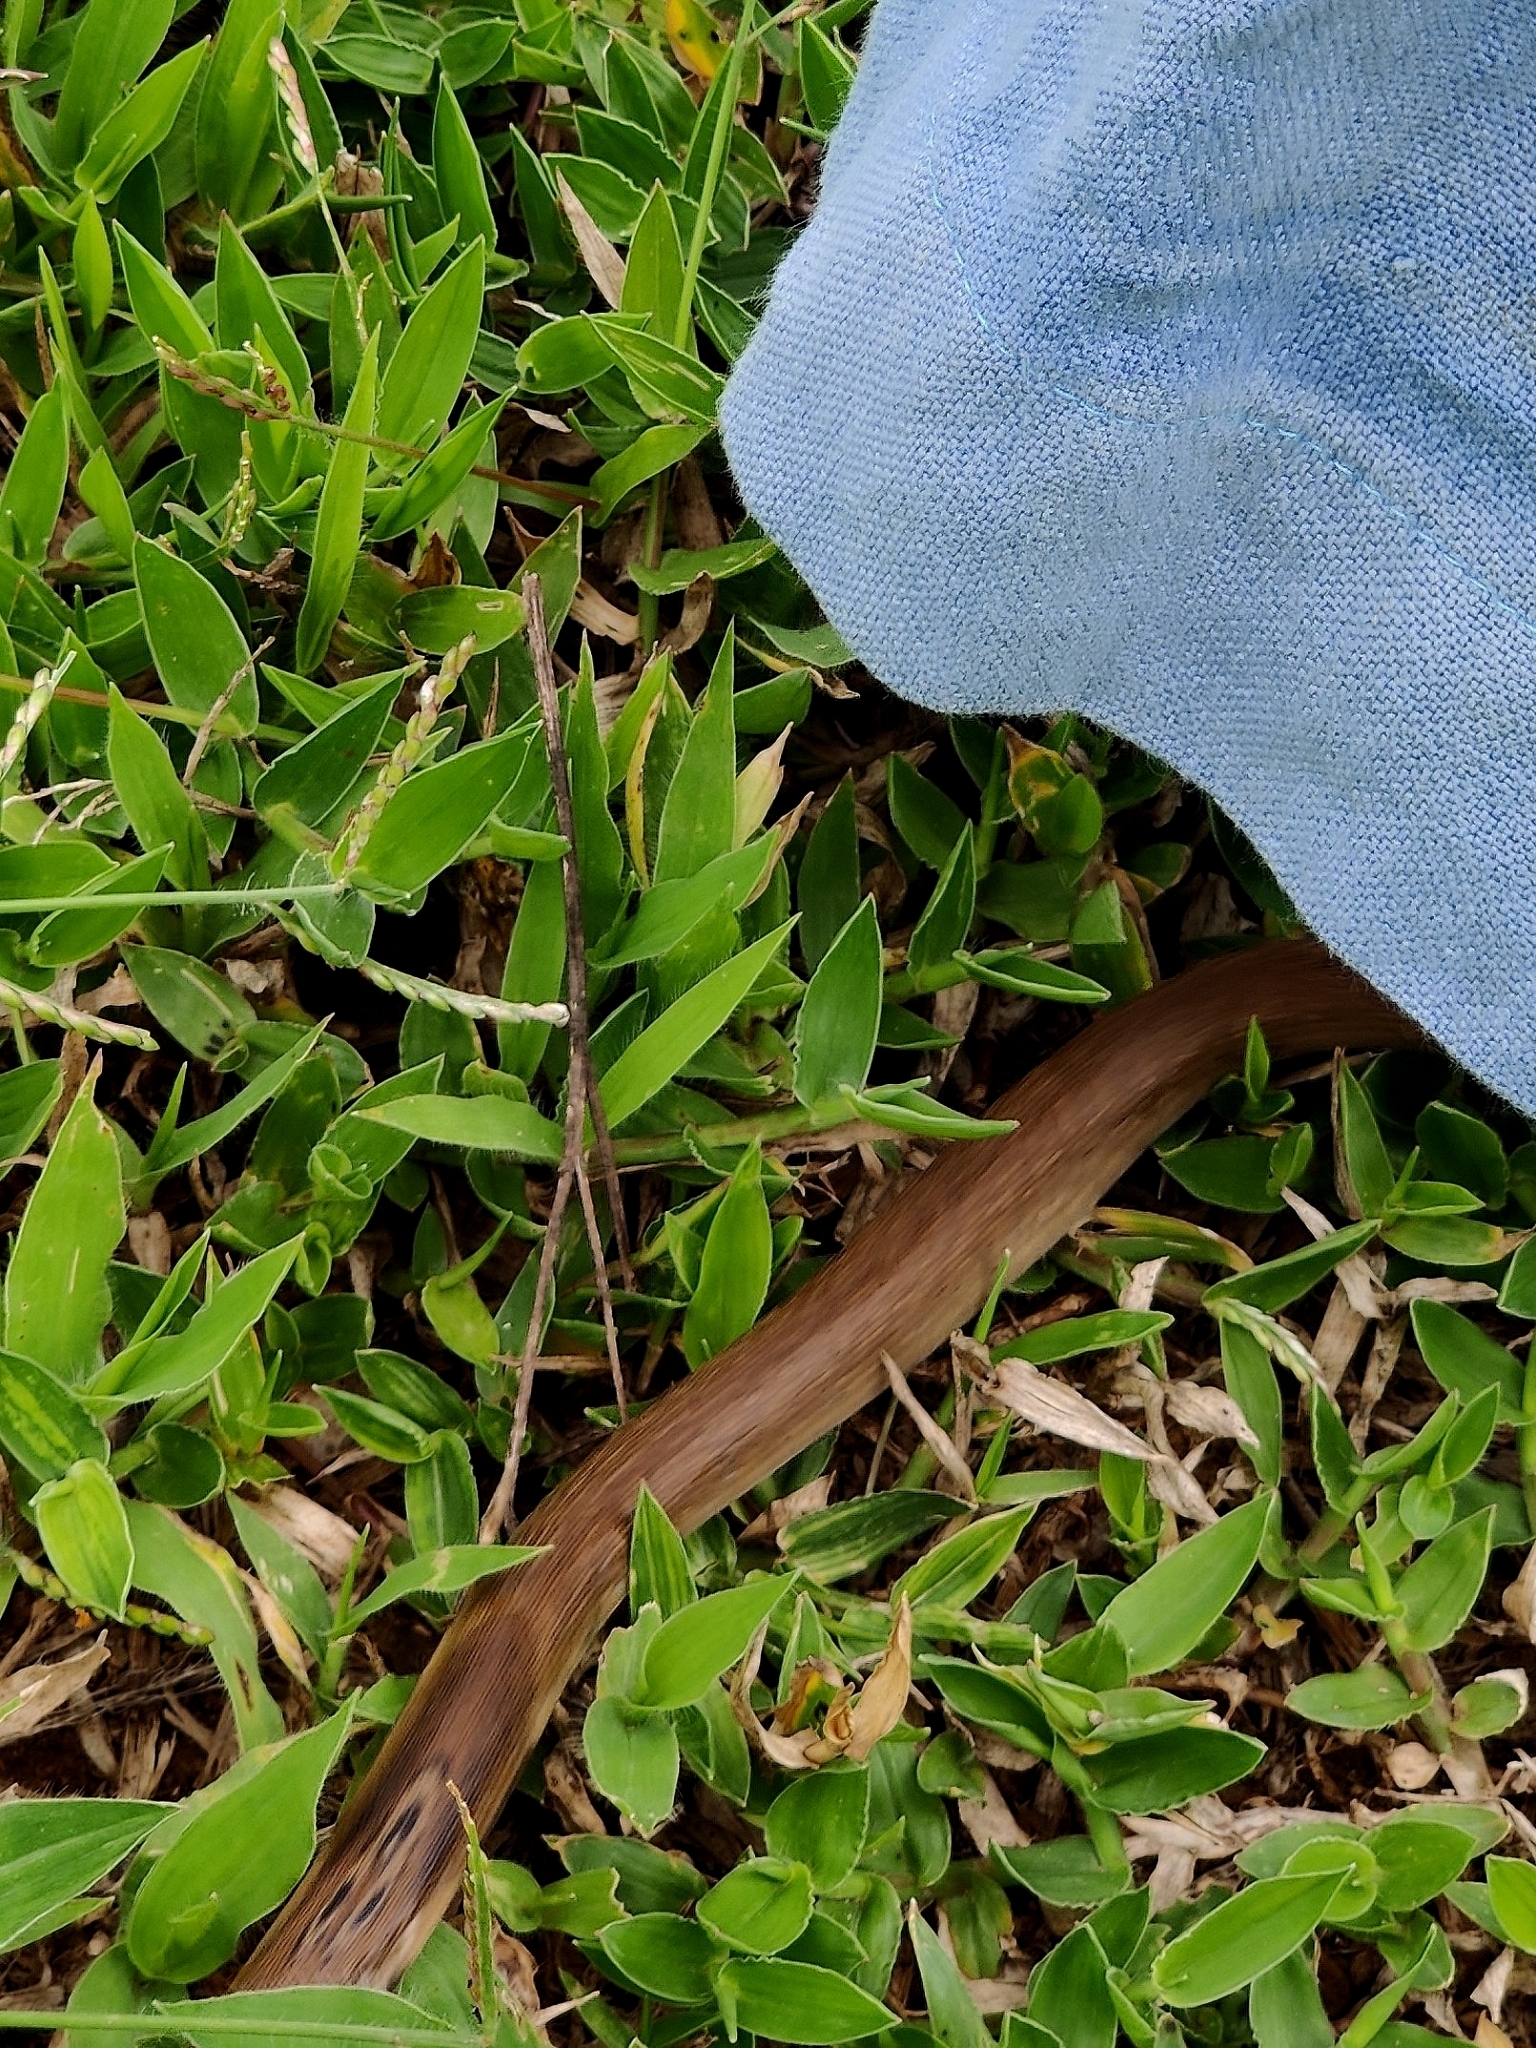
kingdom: Animalia
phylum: Chordata
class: Squamata
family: Elapidae
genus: Naja
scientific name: Naja naja
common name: Indian cobra
